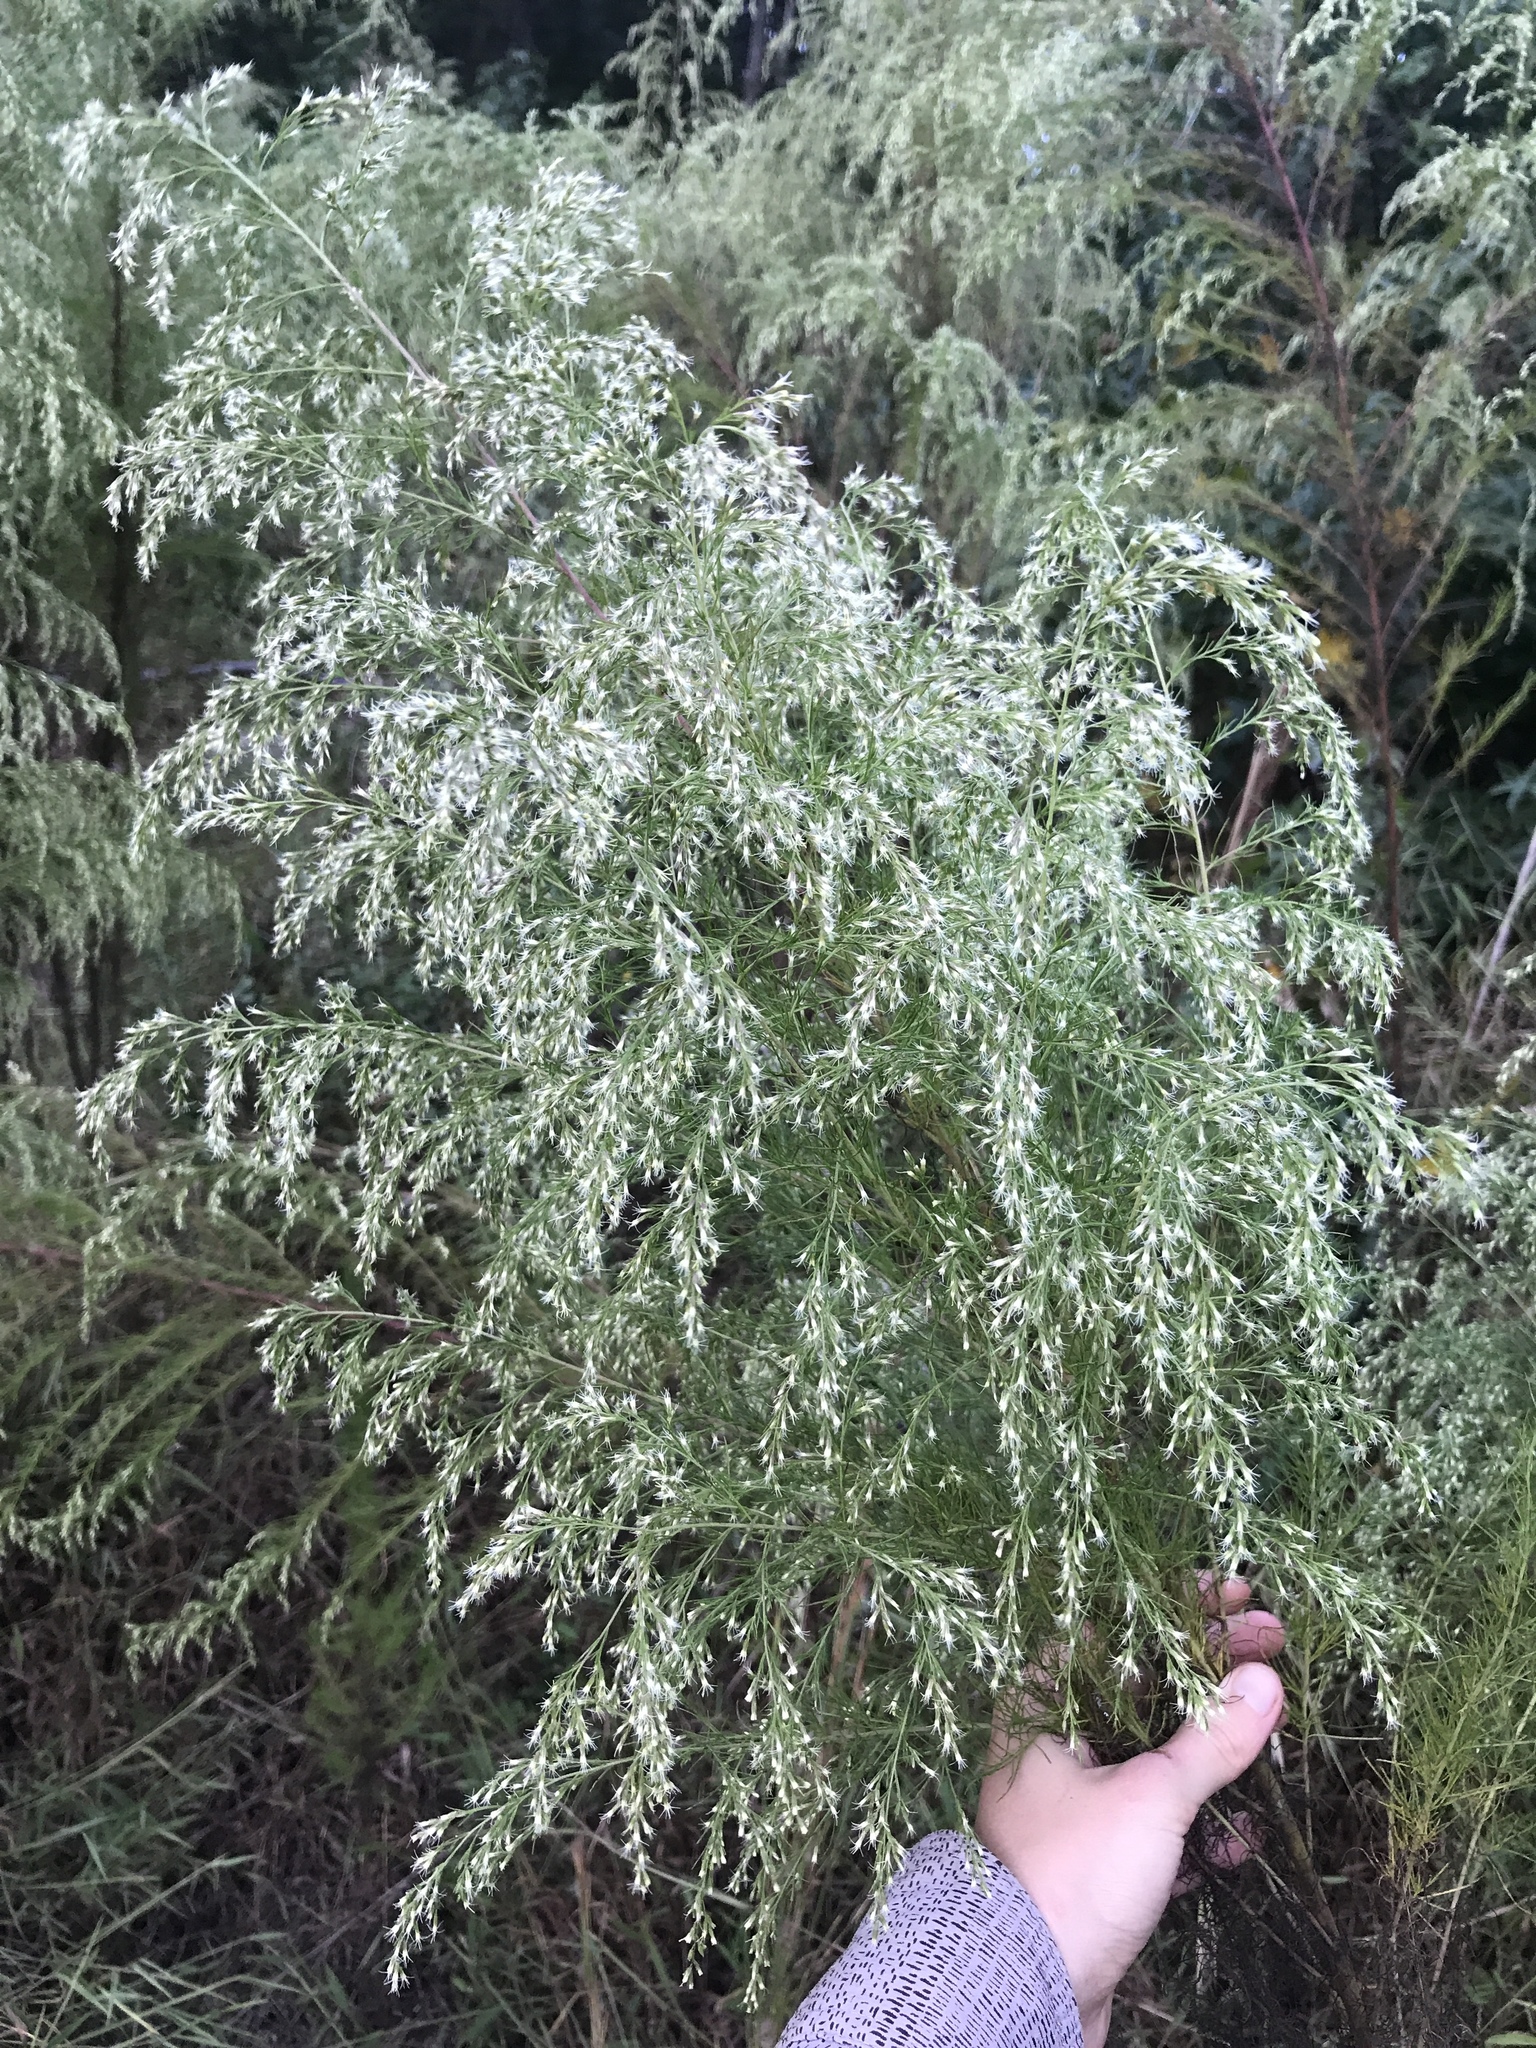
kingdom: Plantae
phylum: Tracheophyta
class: Magnoliopsida
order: Asterales
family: Asteraceae
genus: Eupatorium
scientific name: Eupatorium capillifolium
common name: Dog-fennel
